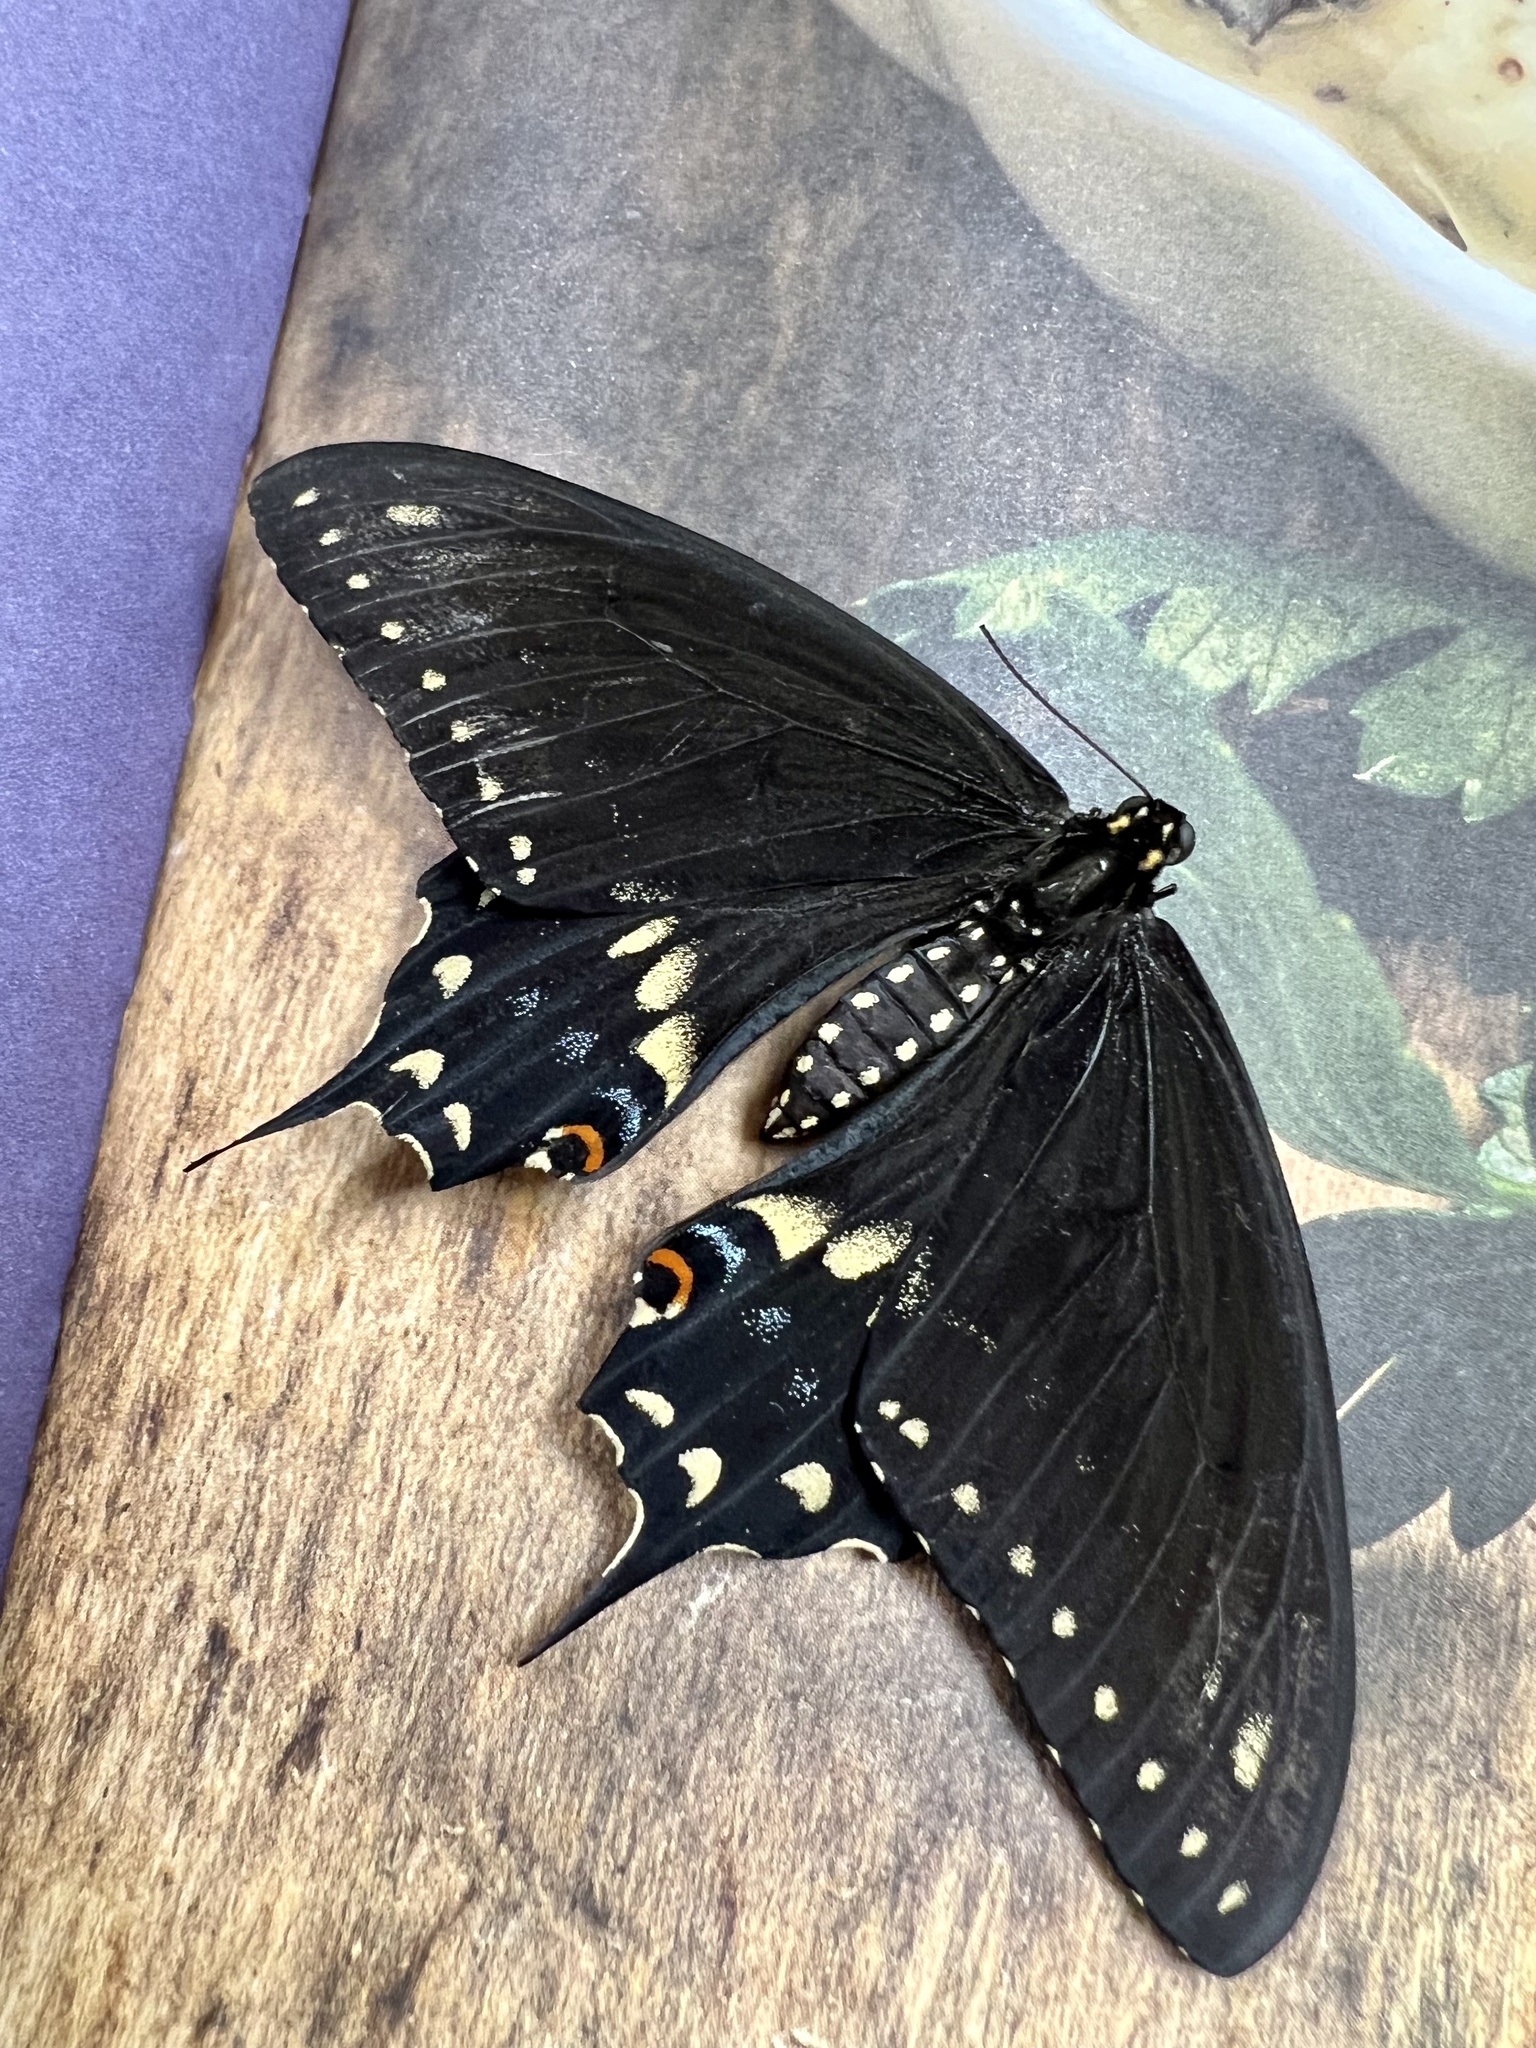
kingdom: Animalia
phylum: Arthropoda
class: Insecta
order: Lepidoptera
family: Papilionidae
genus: Papilio
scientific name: Papilio polyxenes
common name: Black swallowtail
